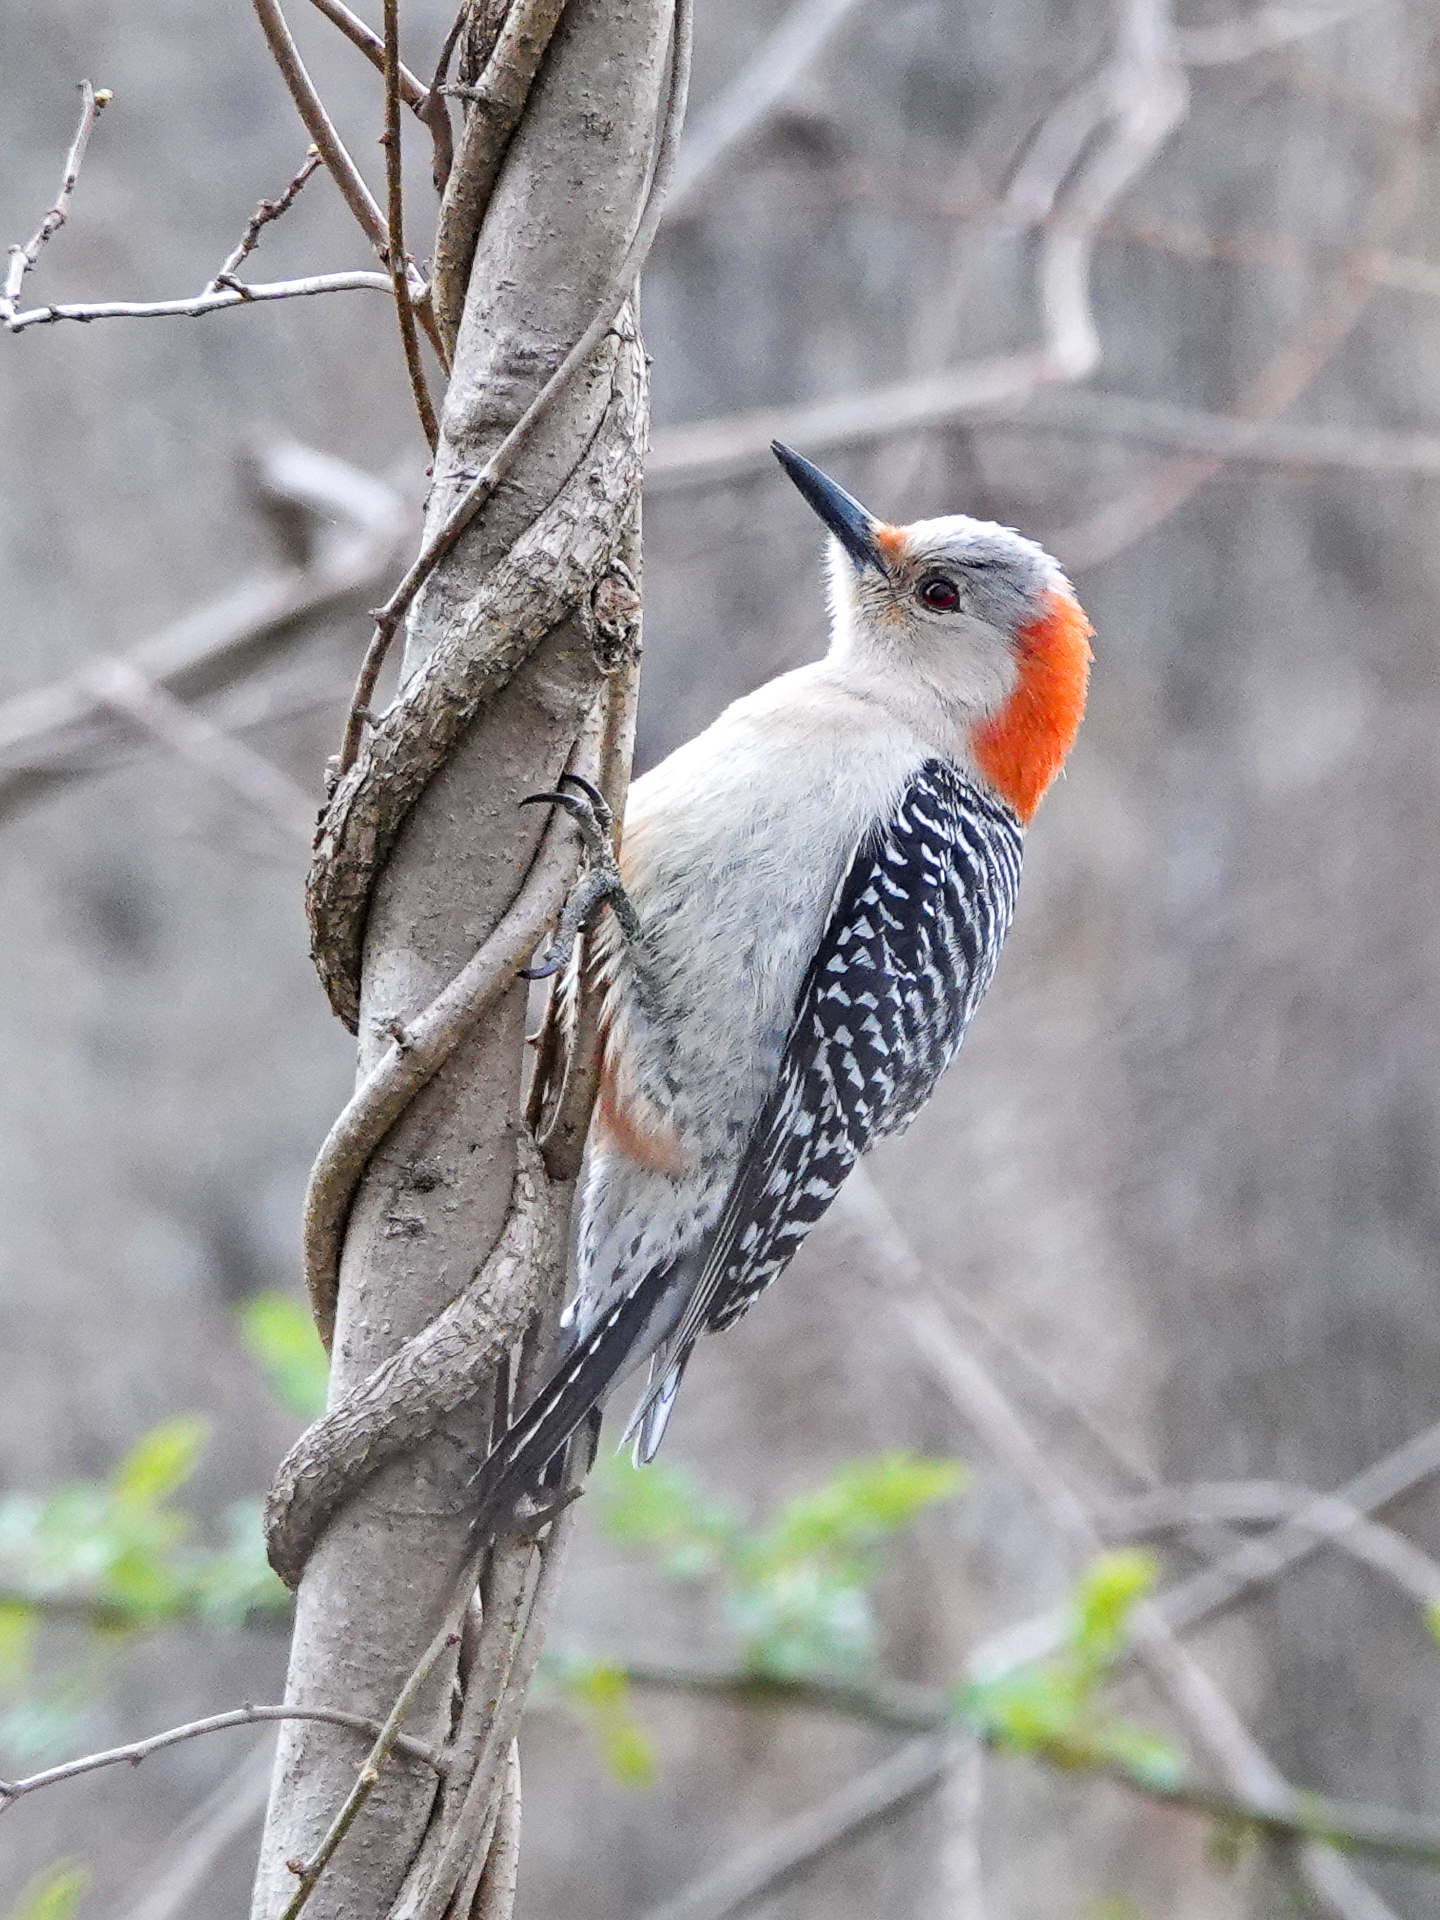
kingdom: Animalia
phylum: Chordata
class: Aves
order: Piciformes
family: Picidae
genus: Melanerpes
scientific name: Melanerpes carolinus
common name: Red-bellied woodpecker
